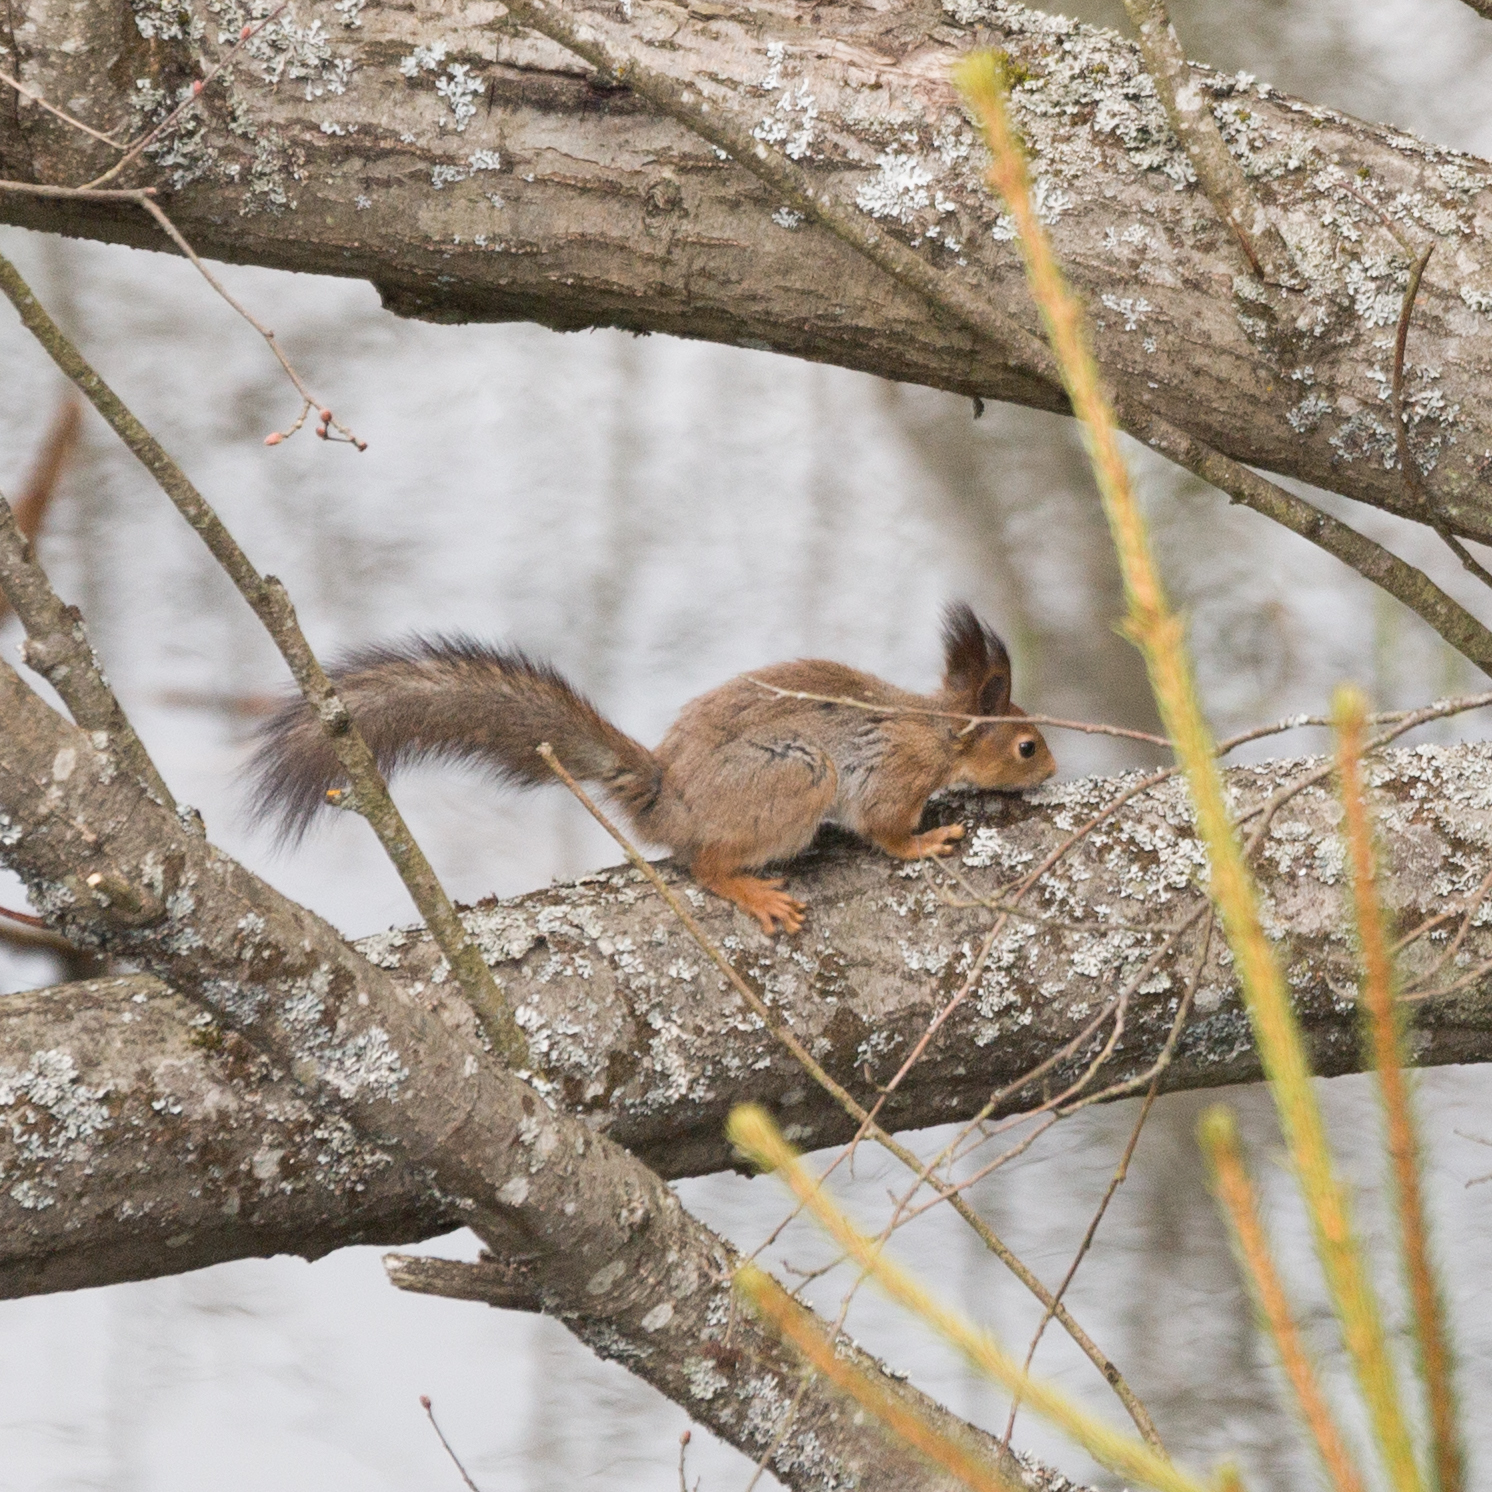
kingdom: Animalia
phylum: Chordata
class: Mammalia
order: Rodentia
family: Sciuridae
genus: Sciurus
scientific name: Sciurus vulgaris
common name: Eurasian red squirrel
